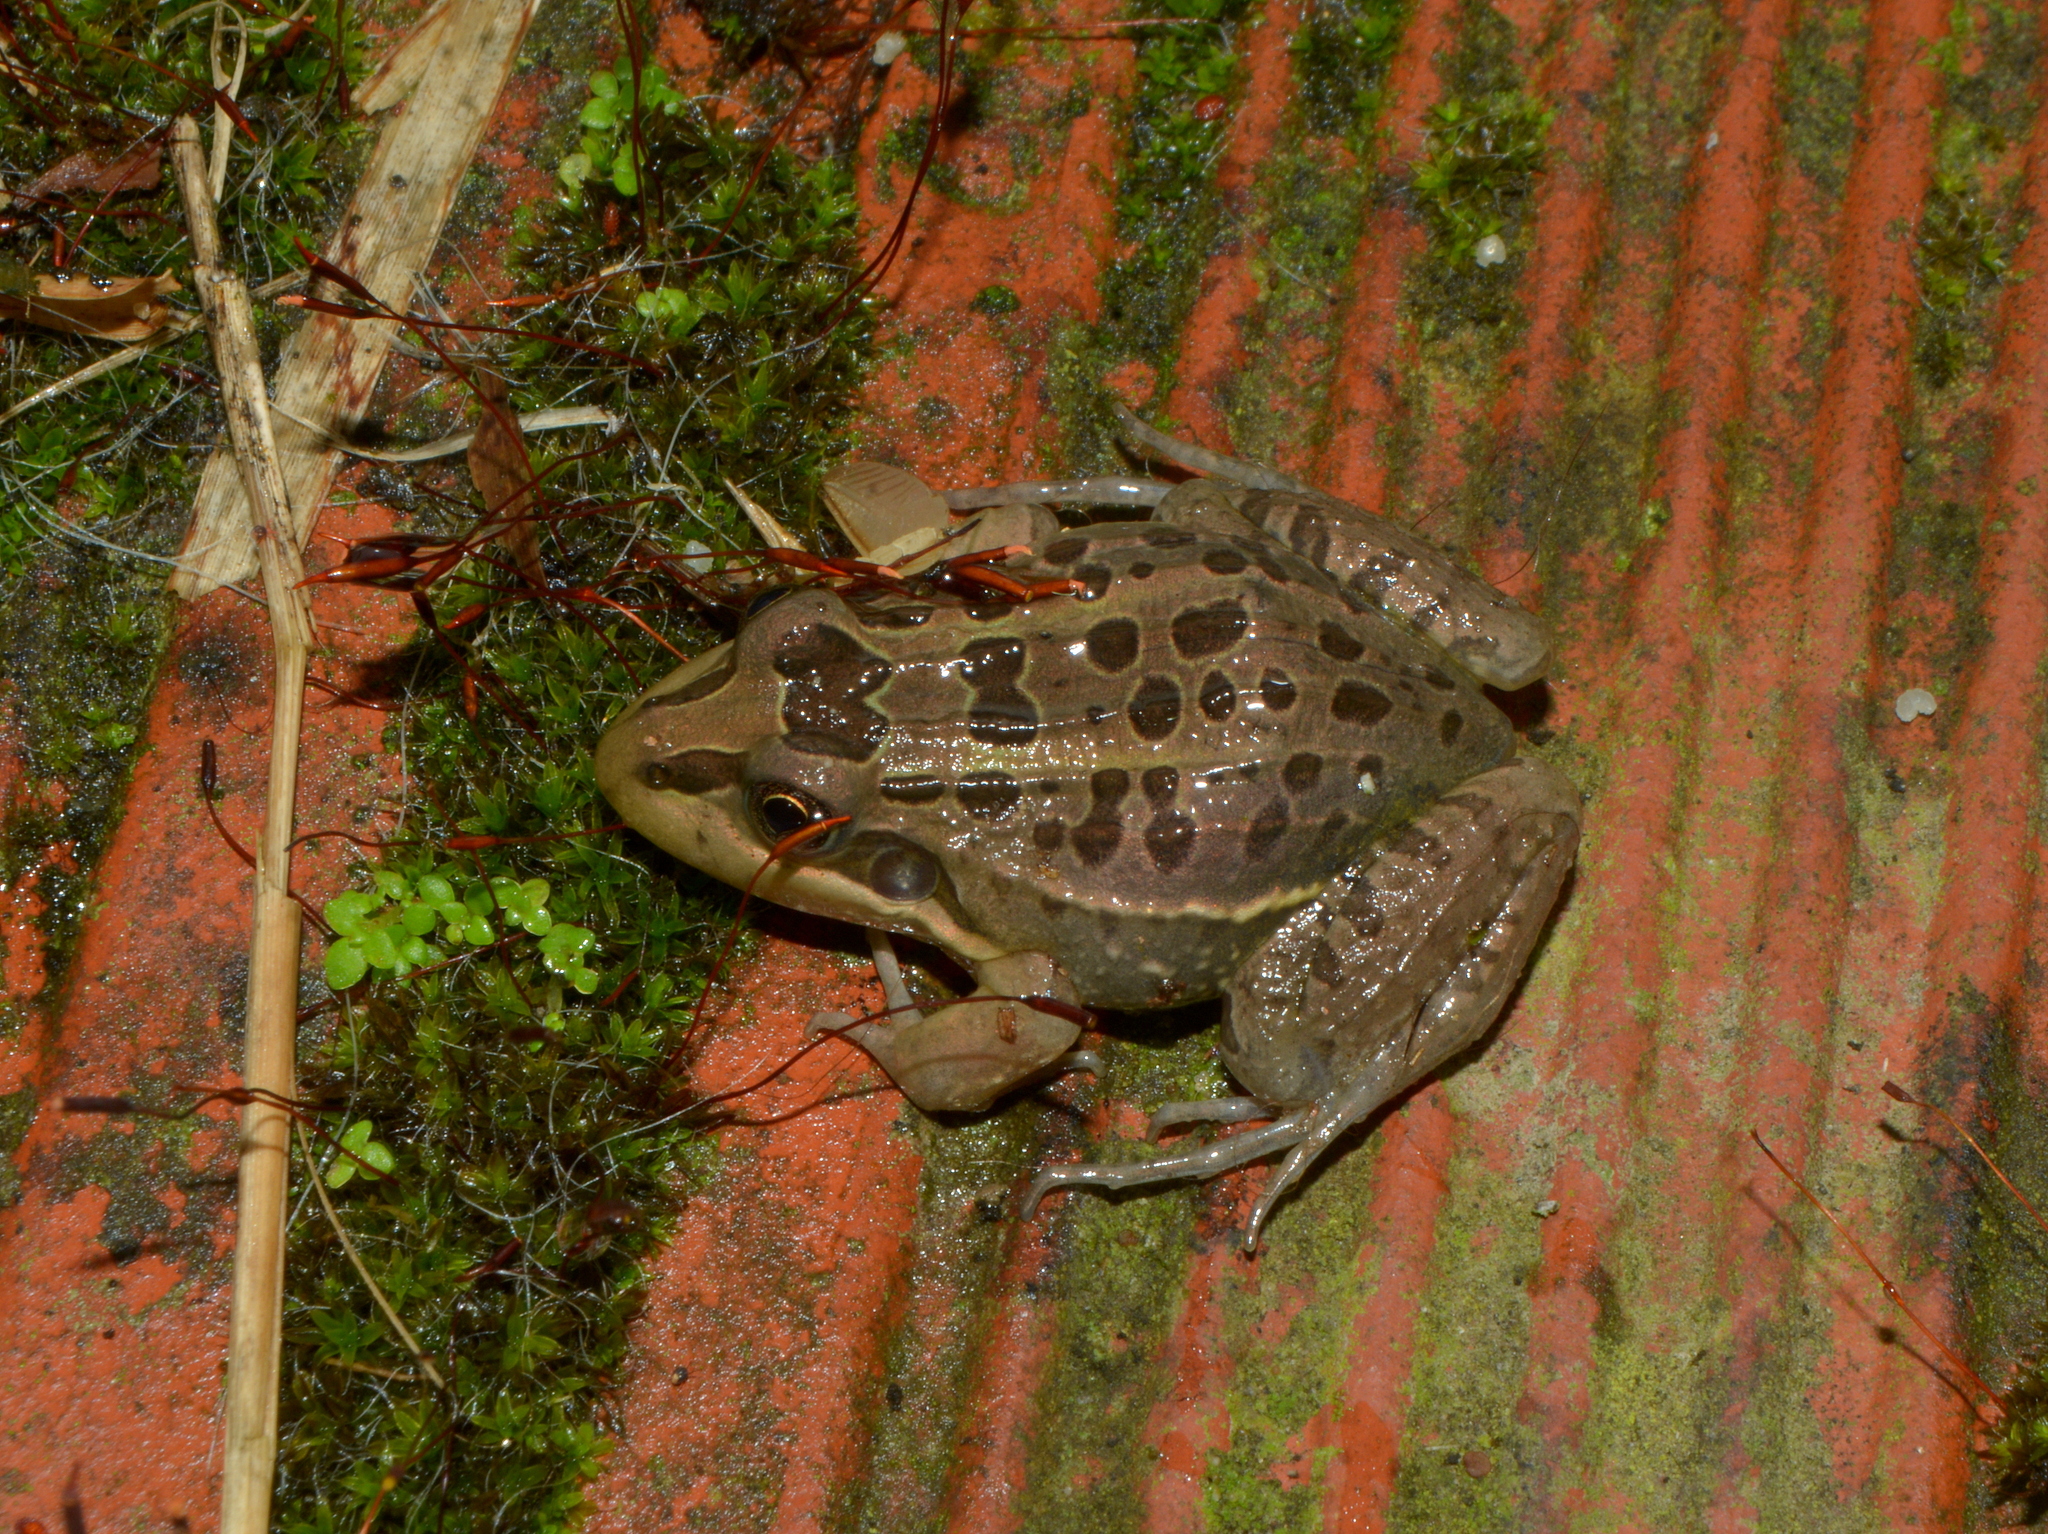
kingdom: Animalia
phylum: Chordata
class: Amphibia
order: Anura
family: Leptodactylidae
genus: Leptodactylus
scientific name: Leptodactylus luctator
